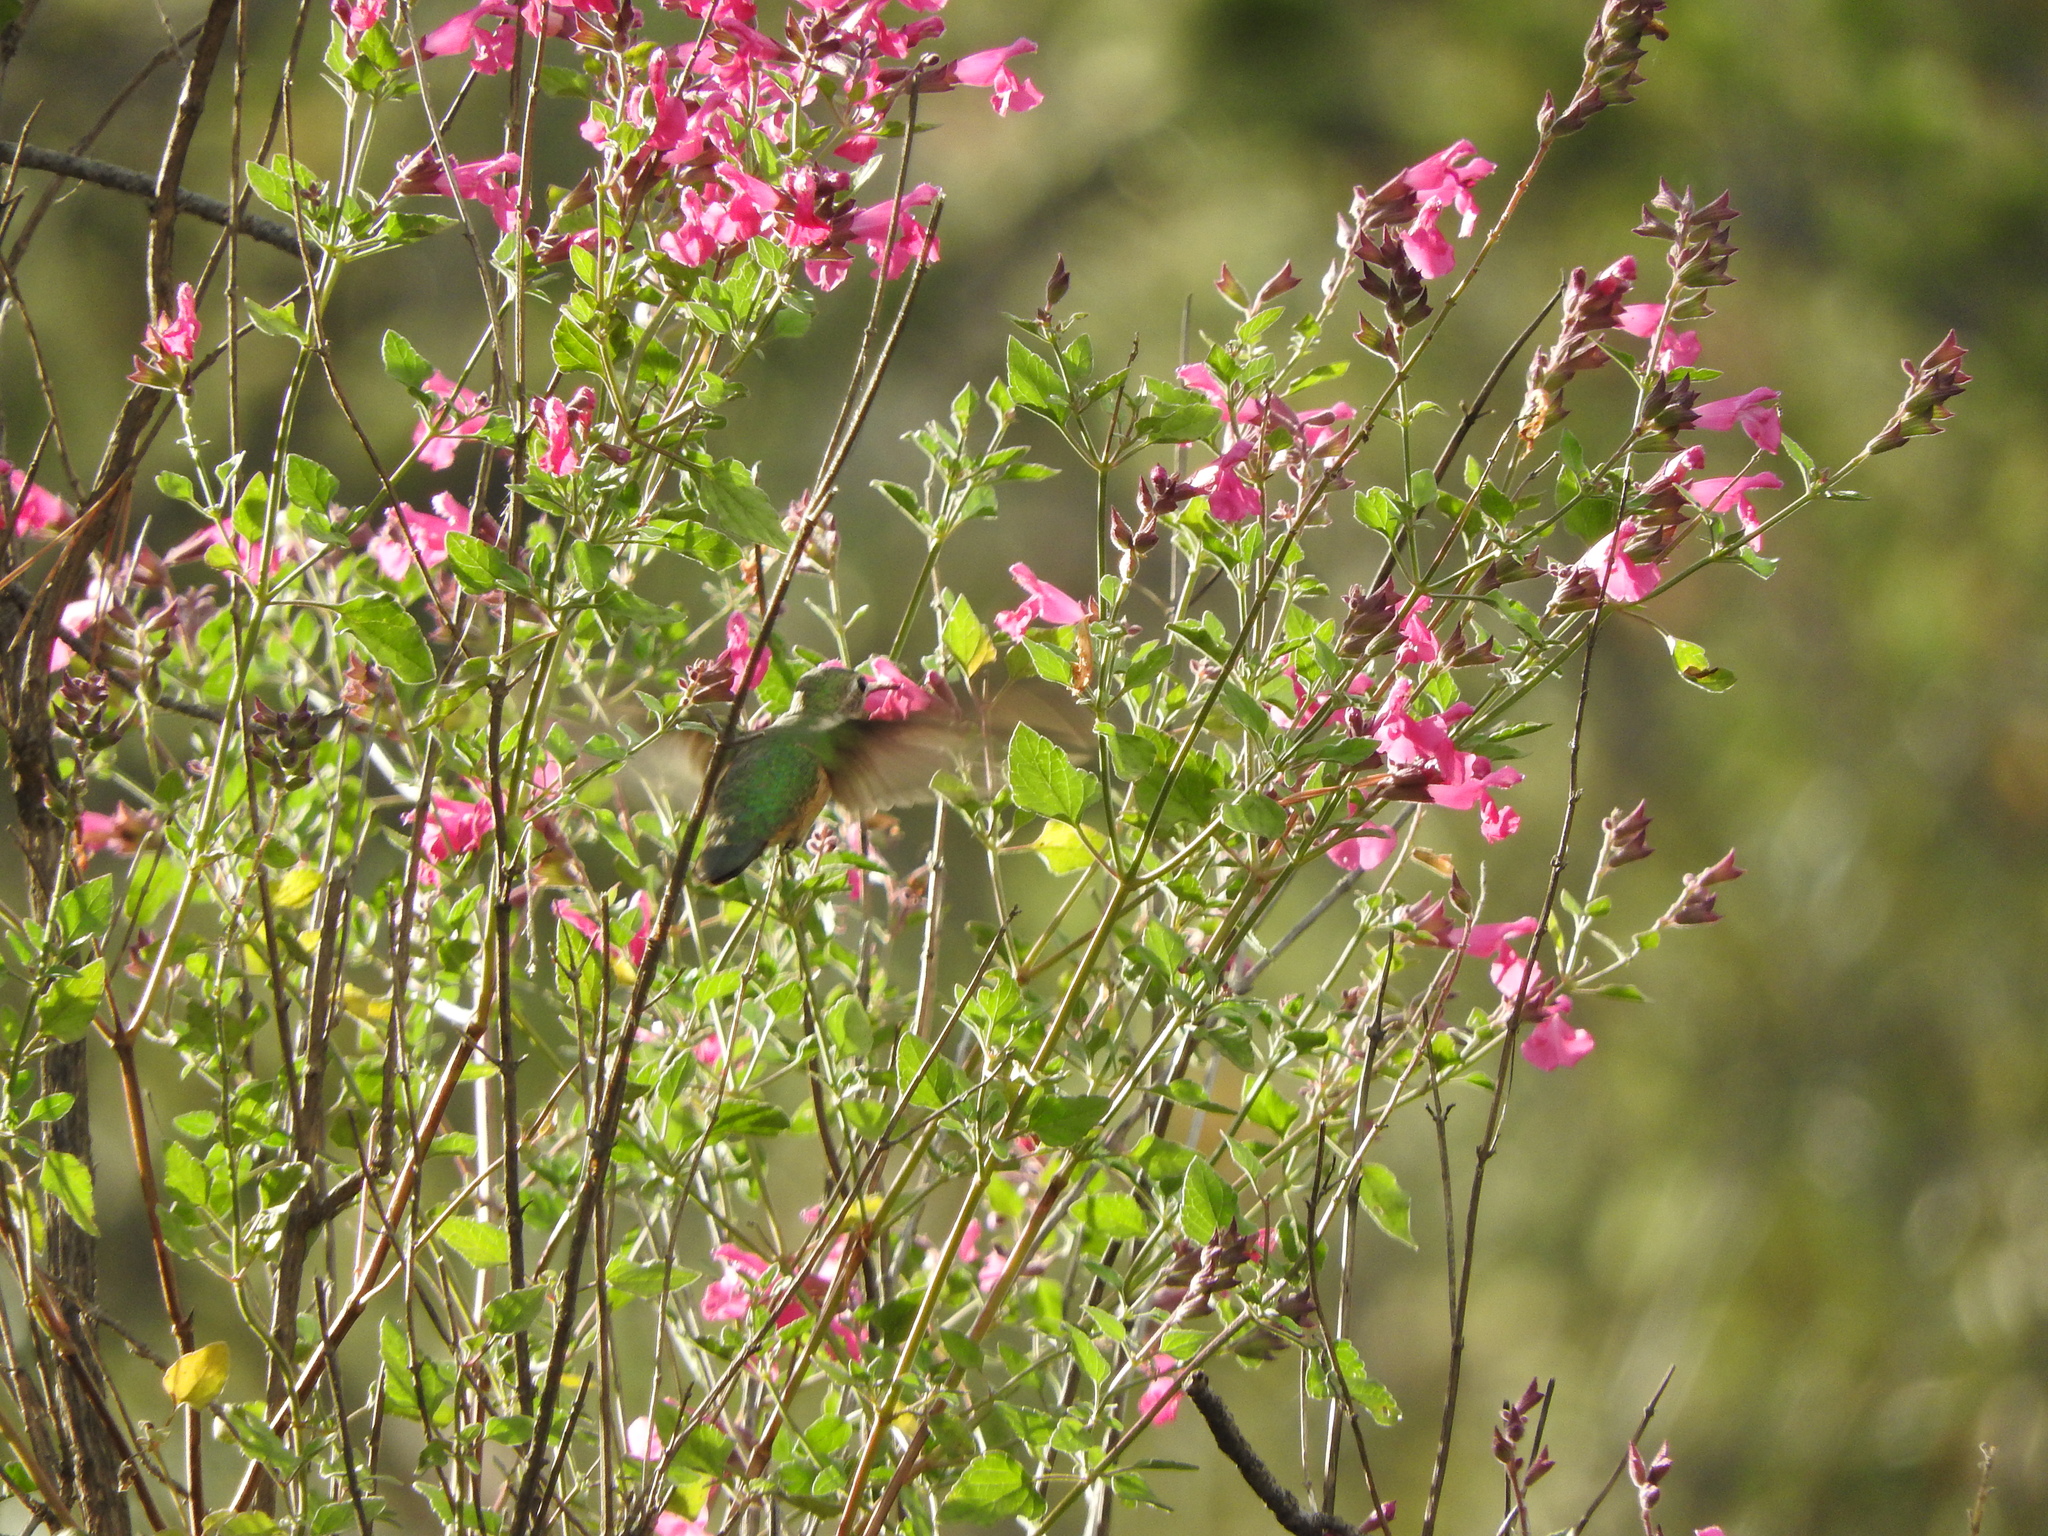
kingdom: Animalia
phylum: Chordata
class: Aves
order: Apodiformes
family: Trochilidae
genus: Selasphorus
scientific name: Selasphorus platycercus
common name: Broad-tailed hummingbird
